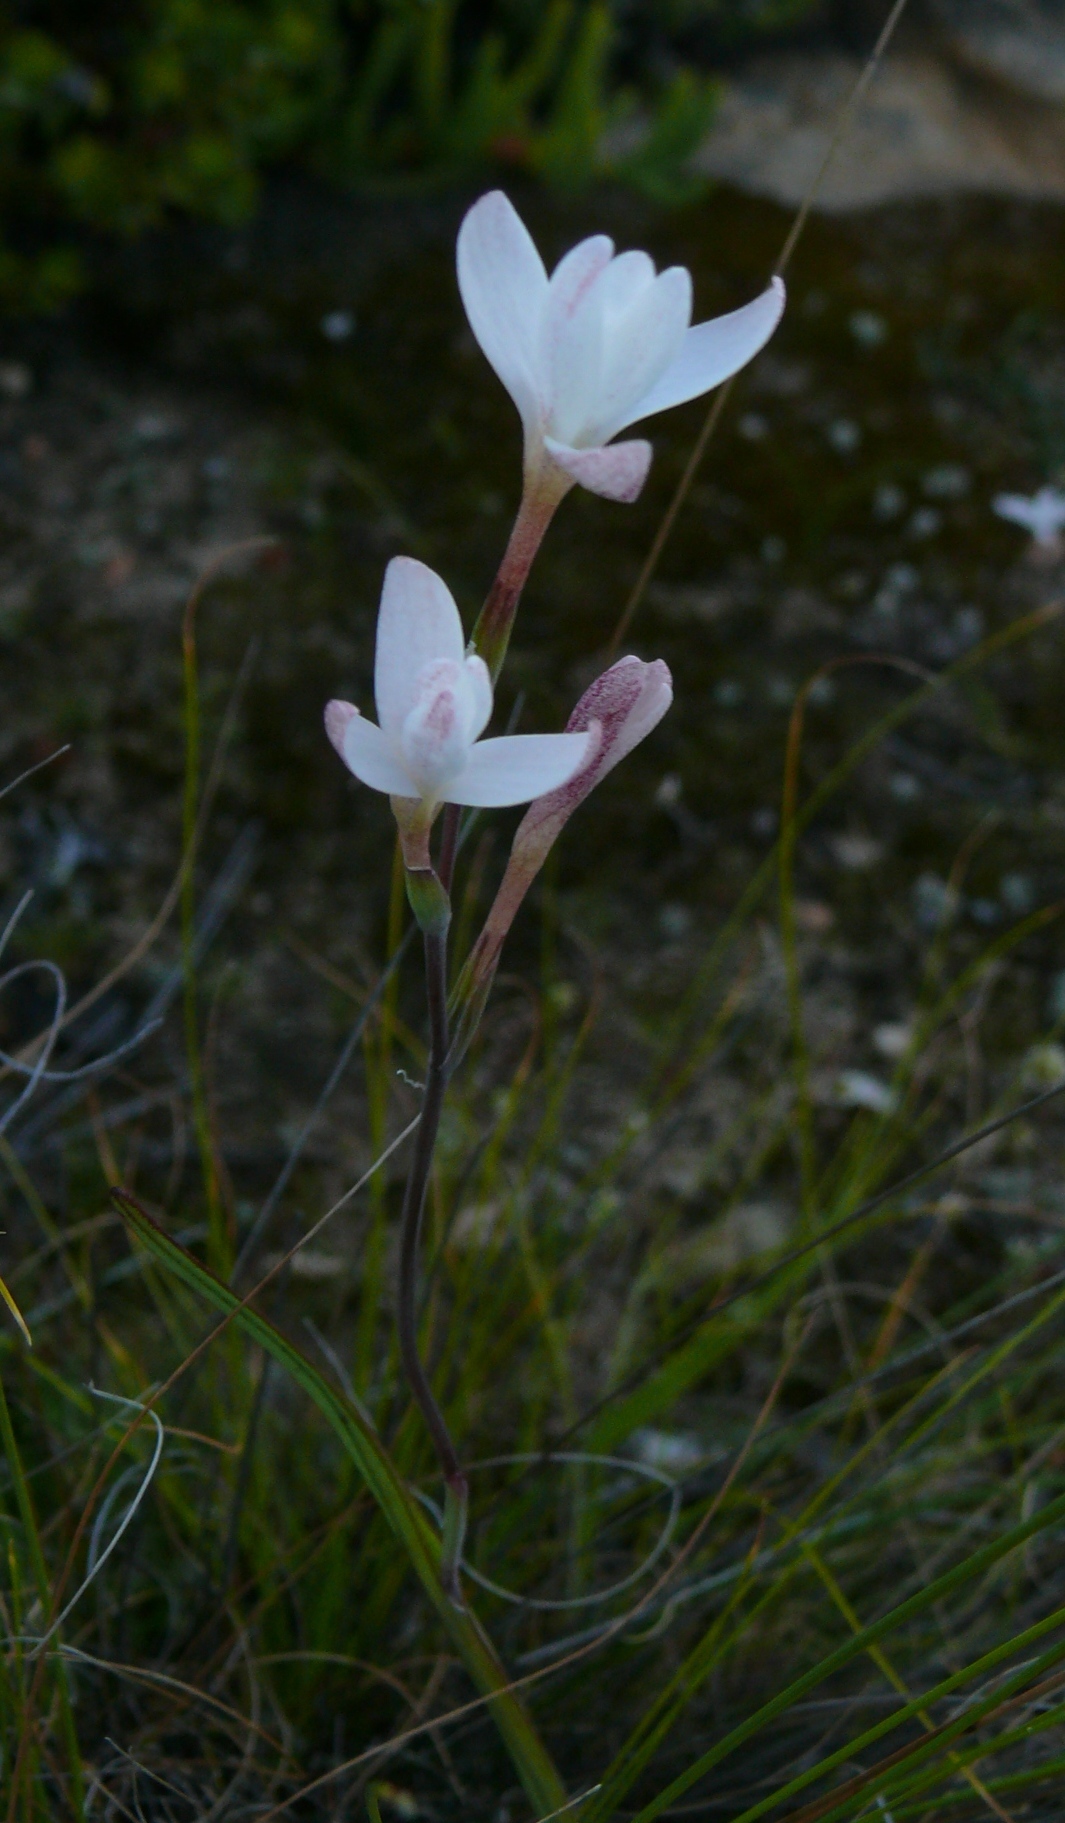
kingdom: Plantae
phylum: Tracheophyta
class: Liliopsida
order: Asparagales
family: Iridaceae
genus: Hesperantha
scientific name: Hesperantha falcata
